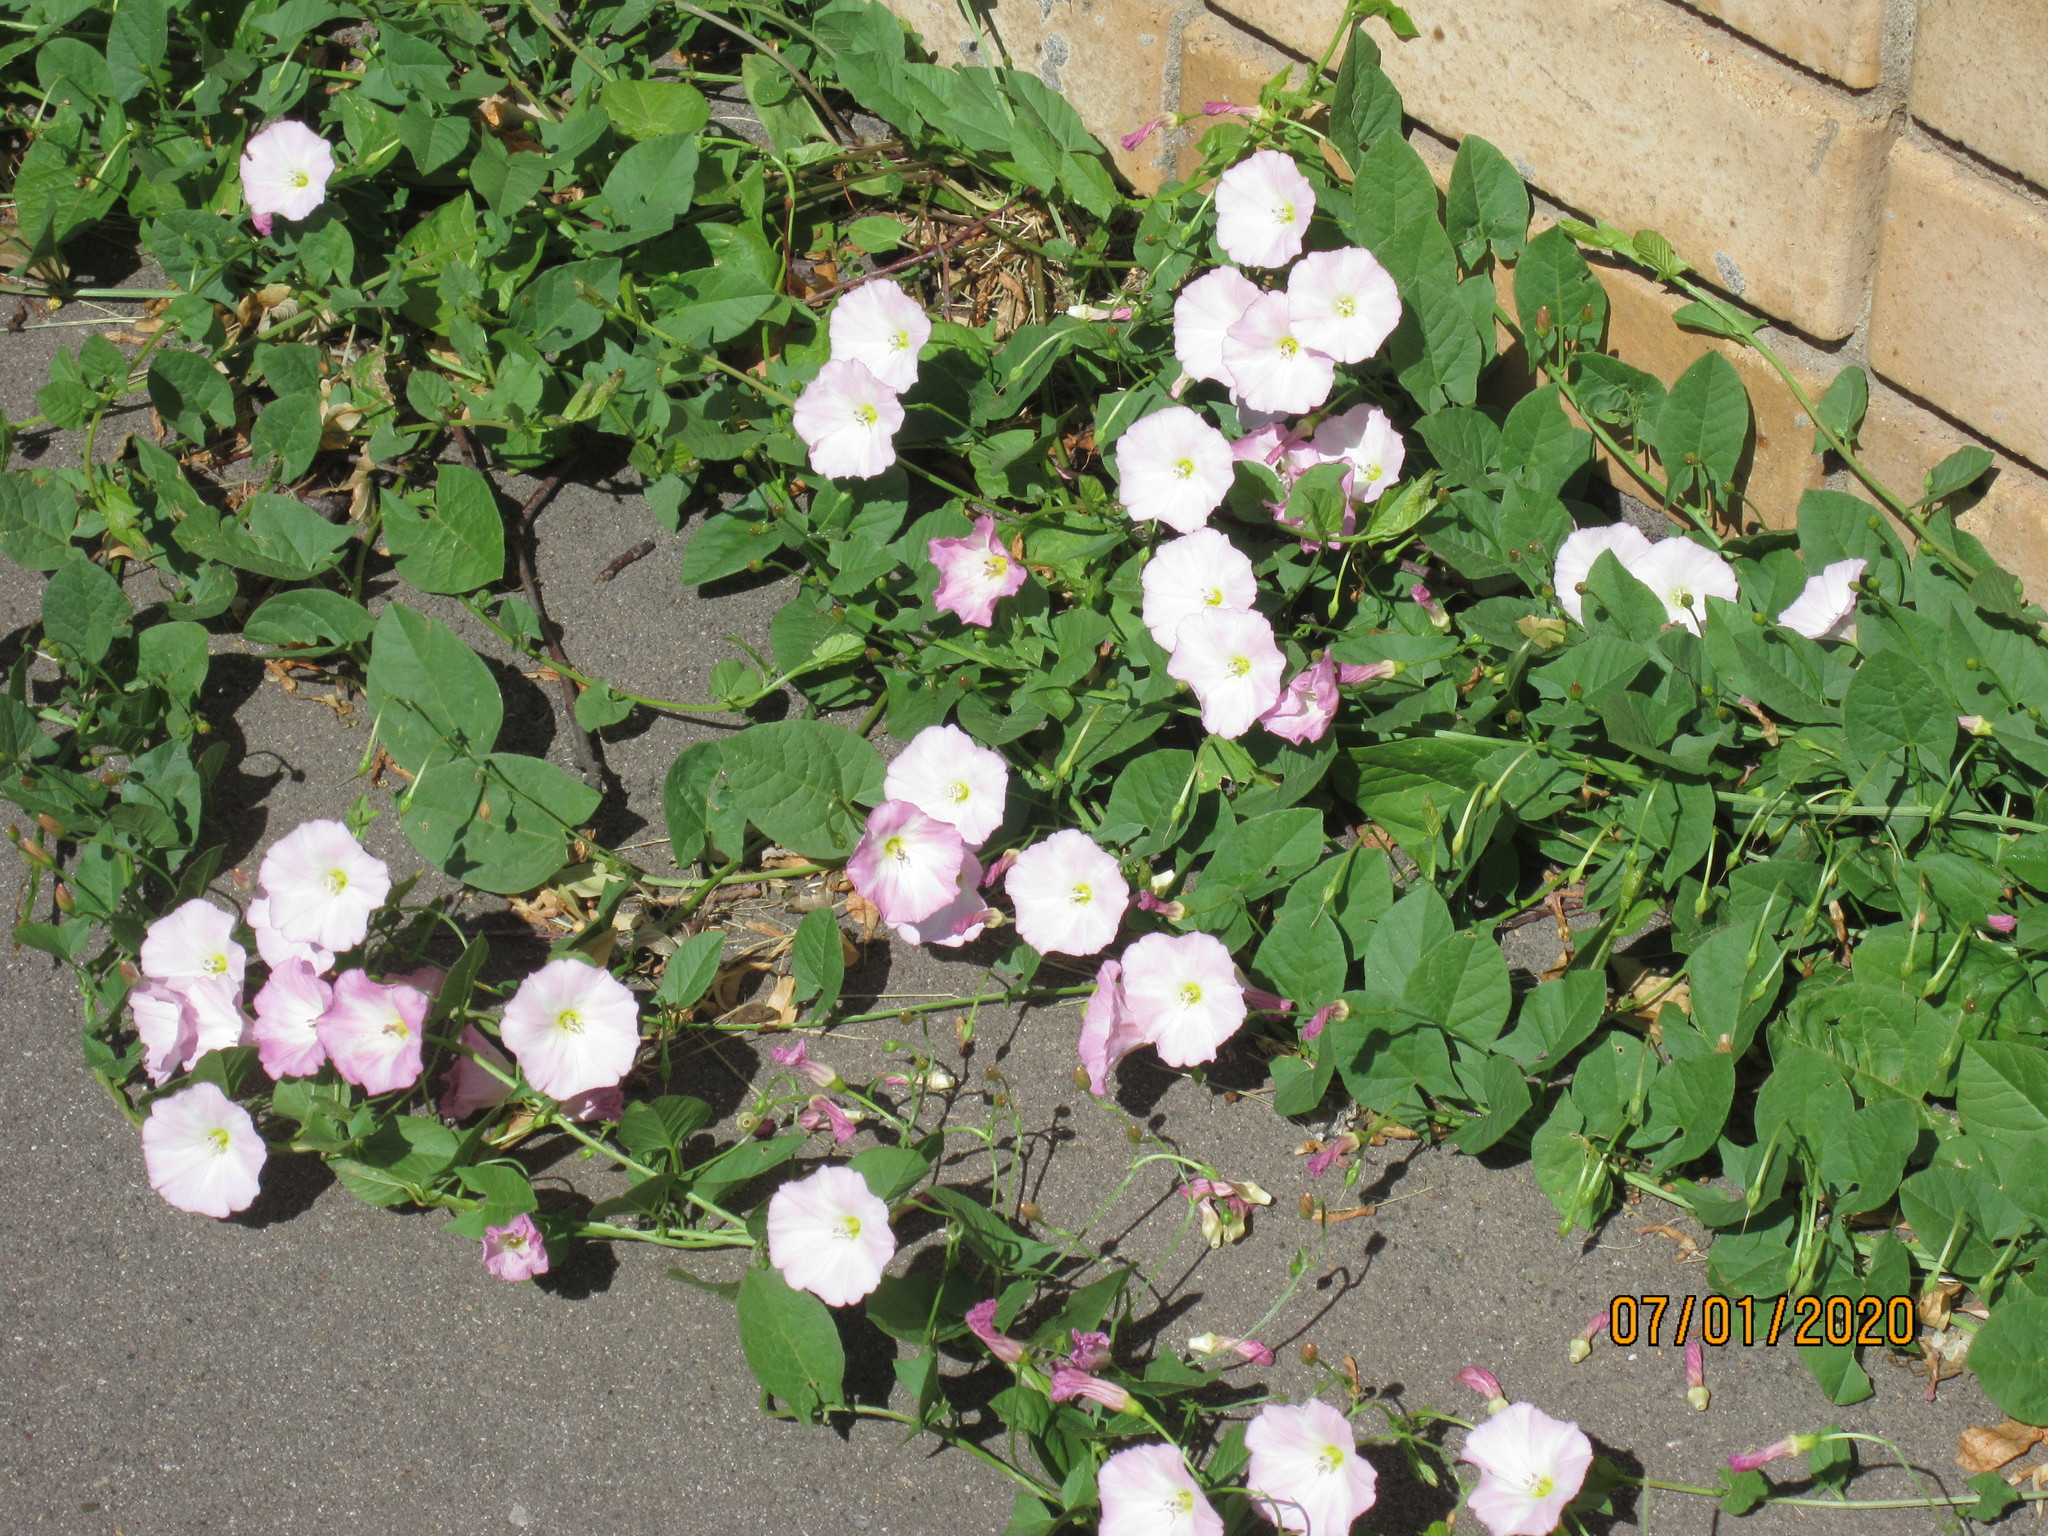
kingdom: Plantae
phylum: Tracheophyta
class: Magnoliopsida
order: Solanales
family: Convolvulaceae
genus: Convolvulus
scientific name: Convolvulus arvensis
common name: Field bindweed
